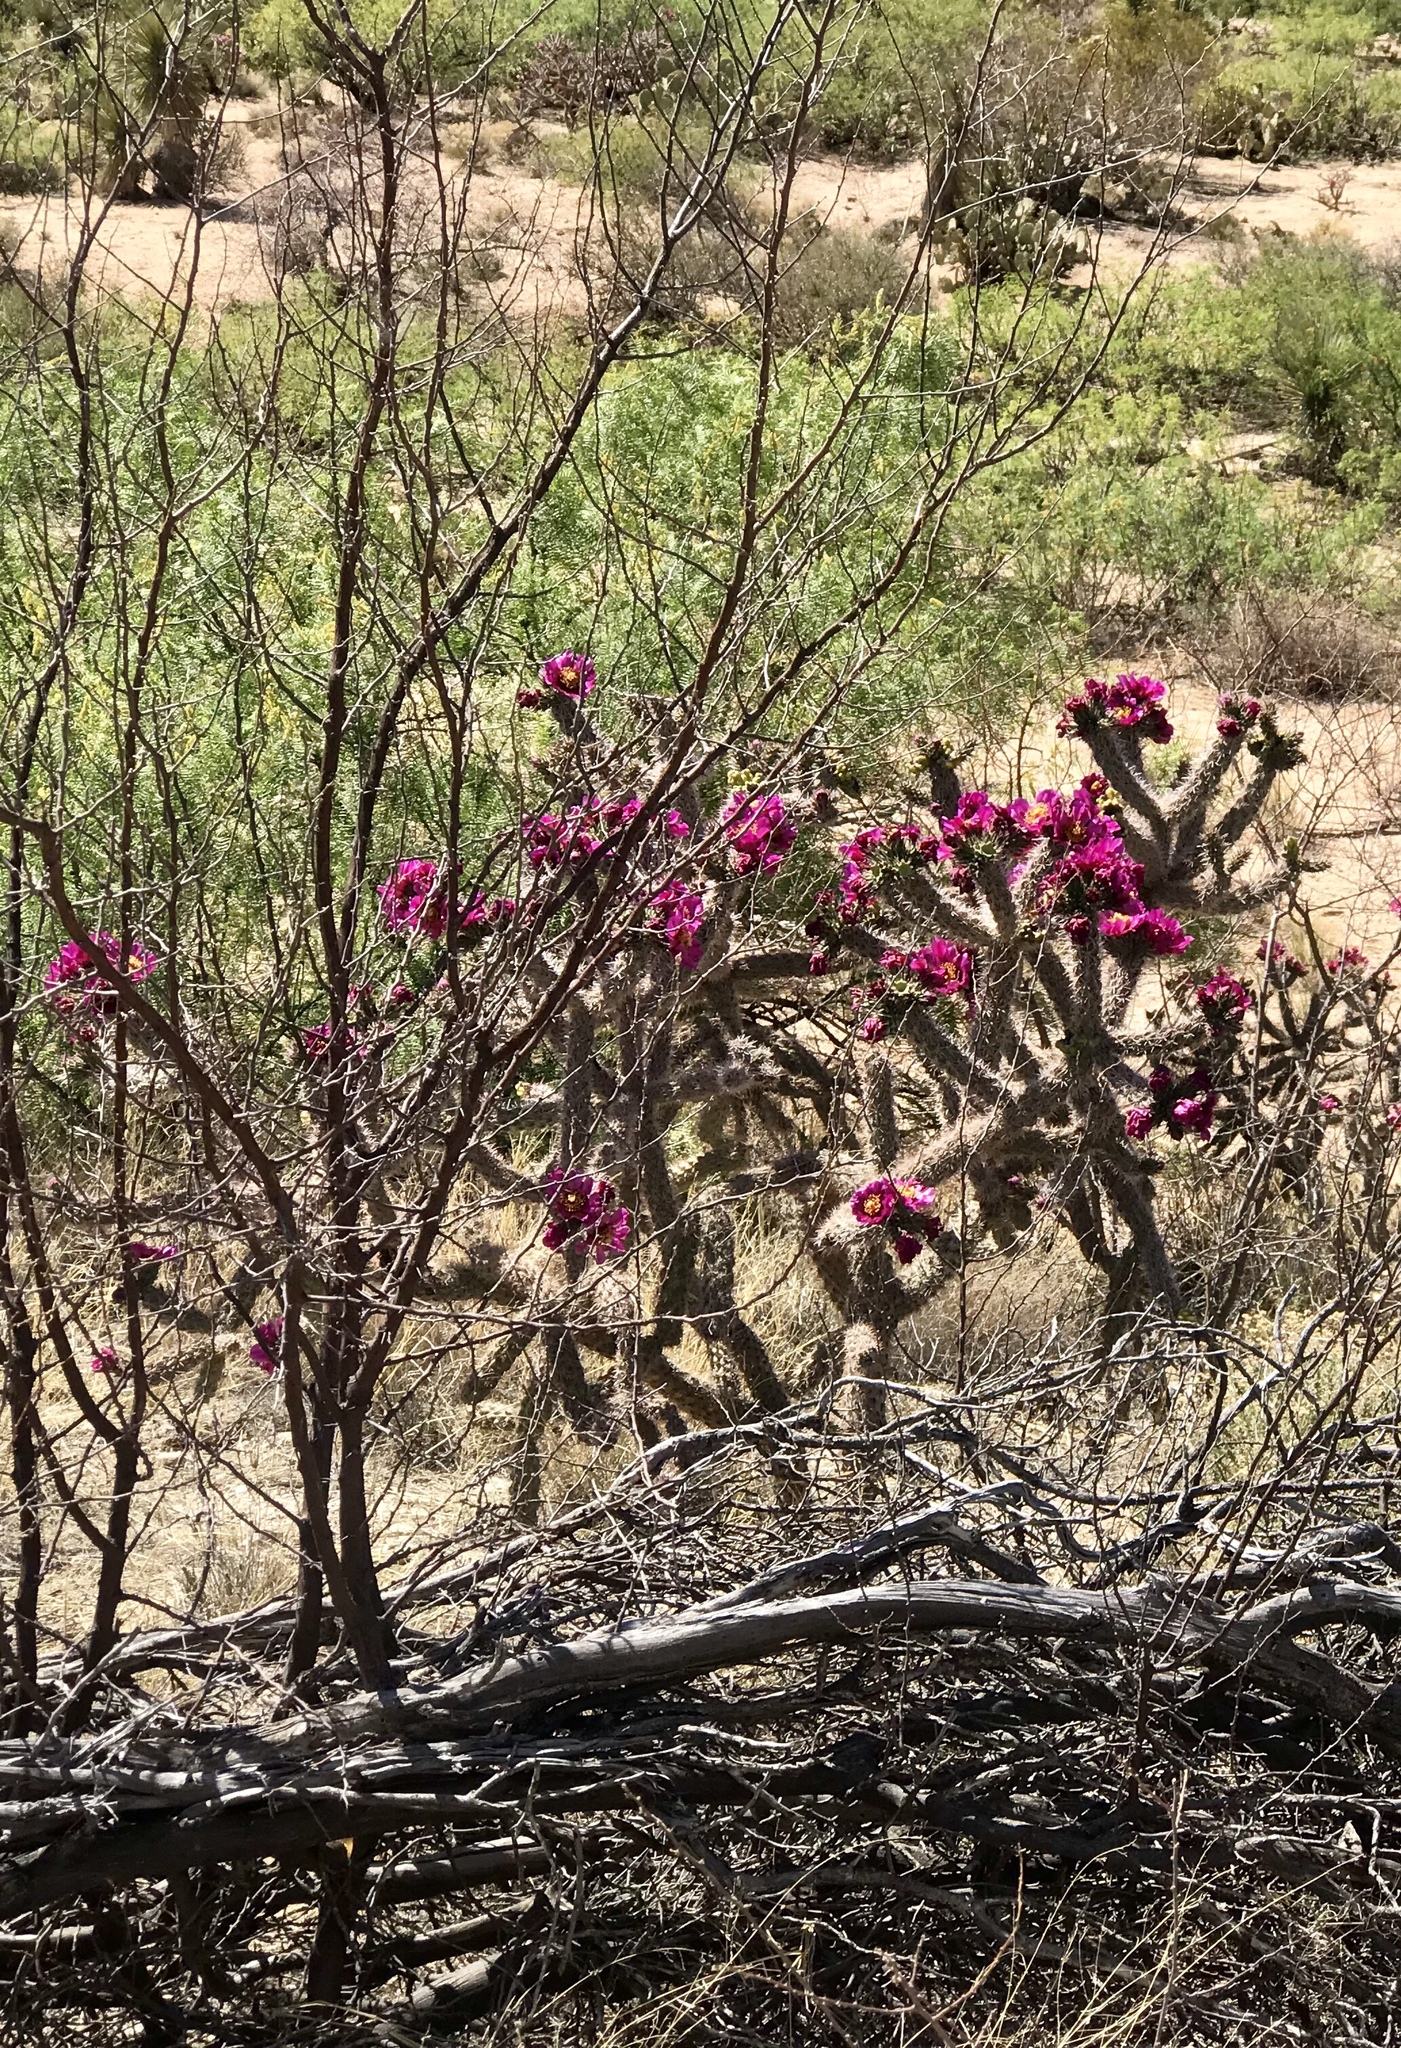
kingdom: Plantae
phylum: Tracheophyta
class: Magnoliopsida
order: Caryophyllales
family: Cactaceae
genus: Cylindropuntia
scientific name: Cylindropuntia imbricata
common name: Candelabrum cactus
